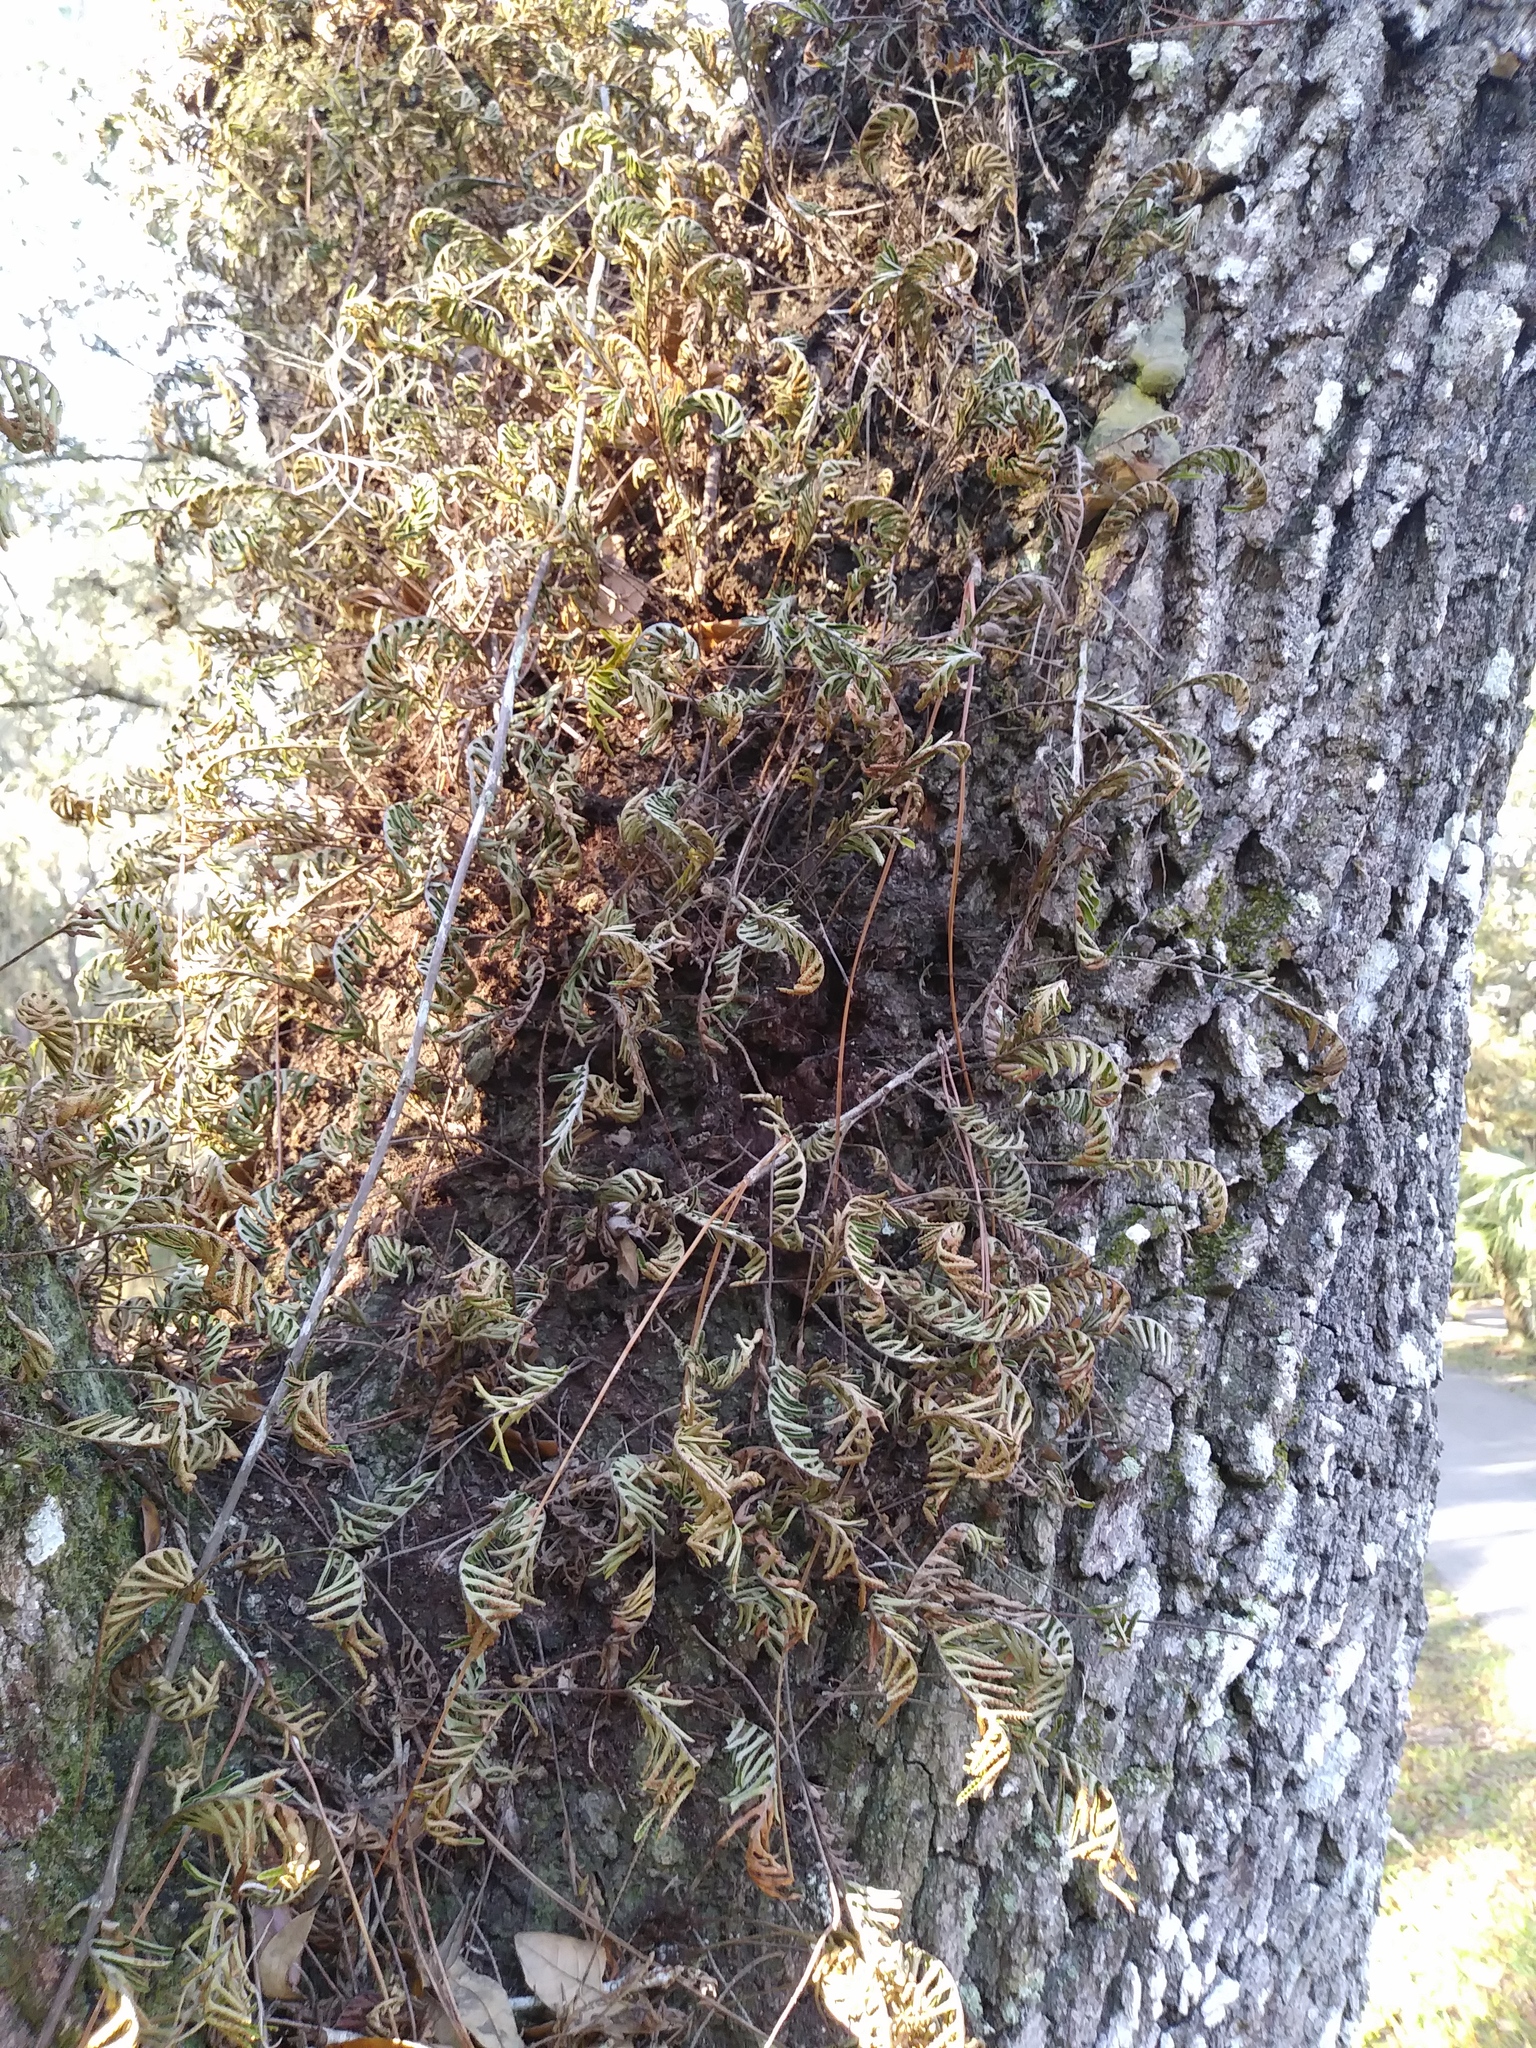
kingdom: Plantae
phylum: Tracheophyta
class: Polypodiopsida
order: Polypodiales
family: Polypodiaceae
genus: Pleopeltis
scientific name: Pleopeltis michauxiana
